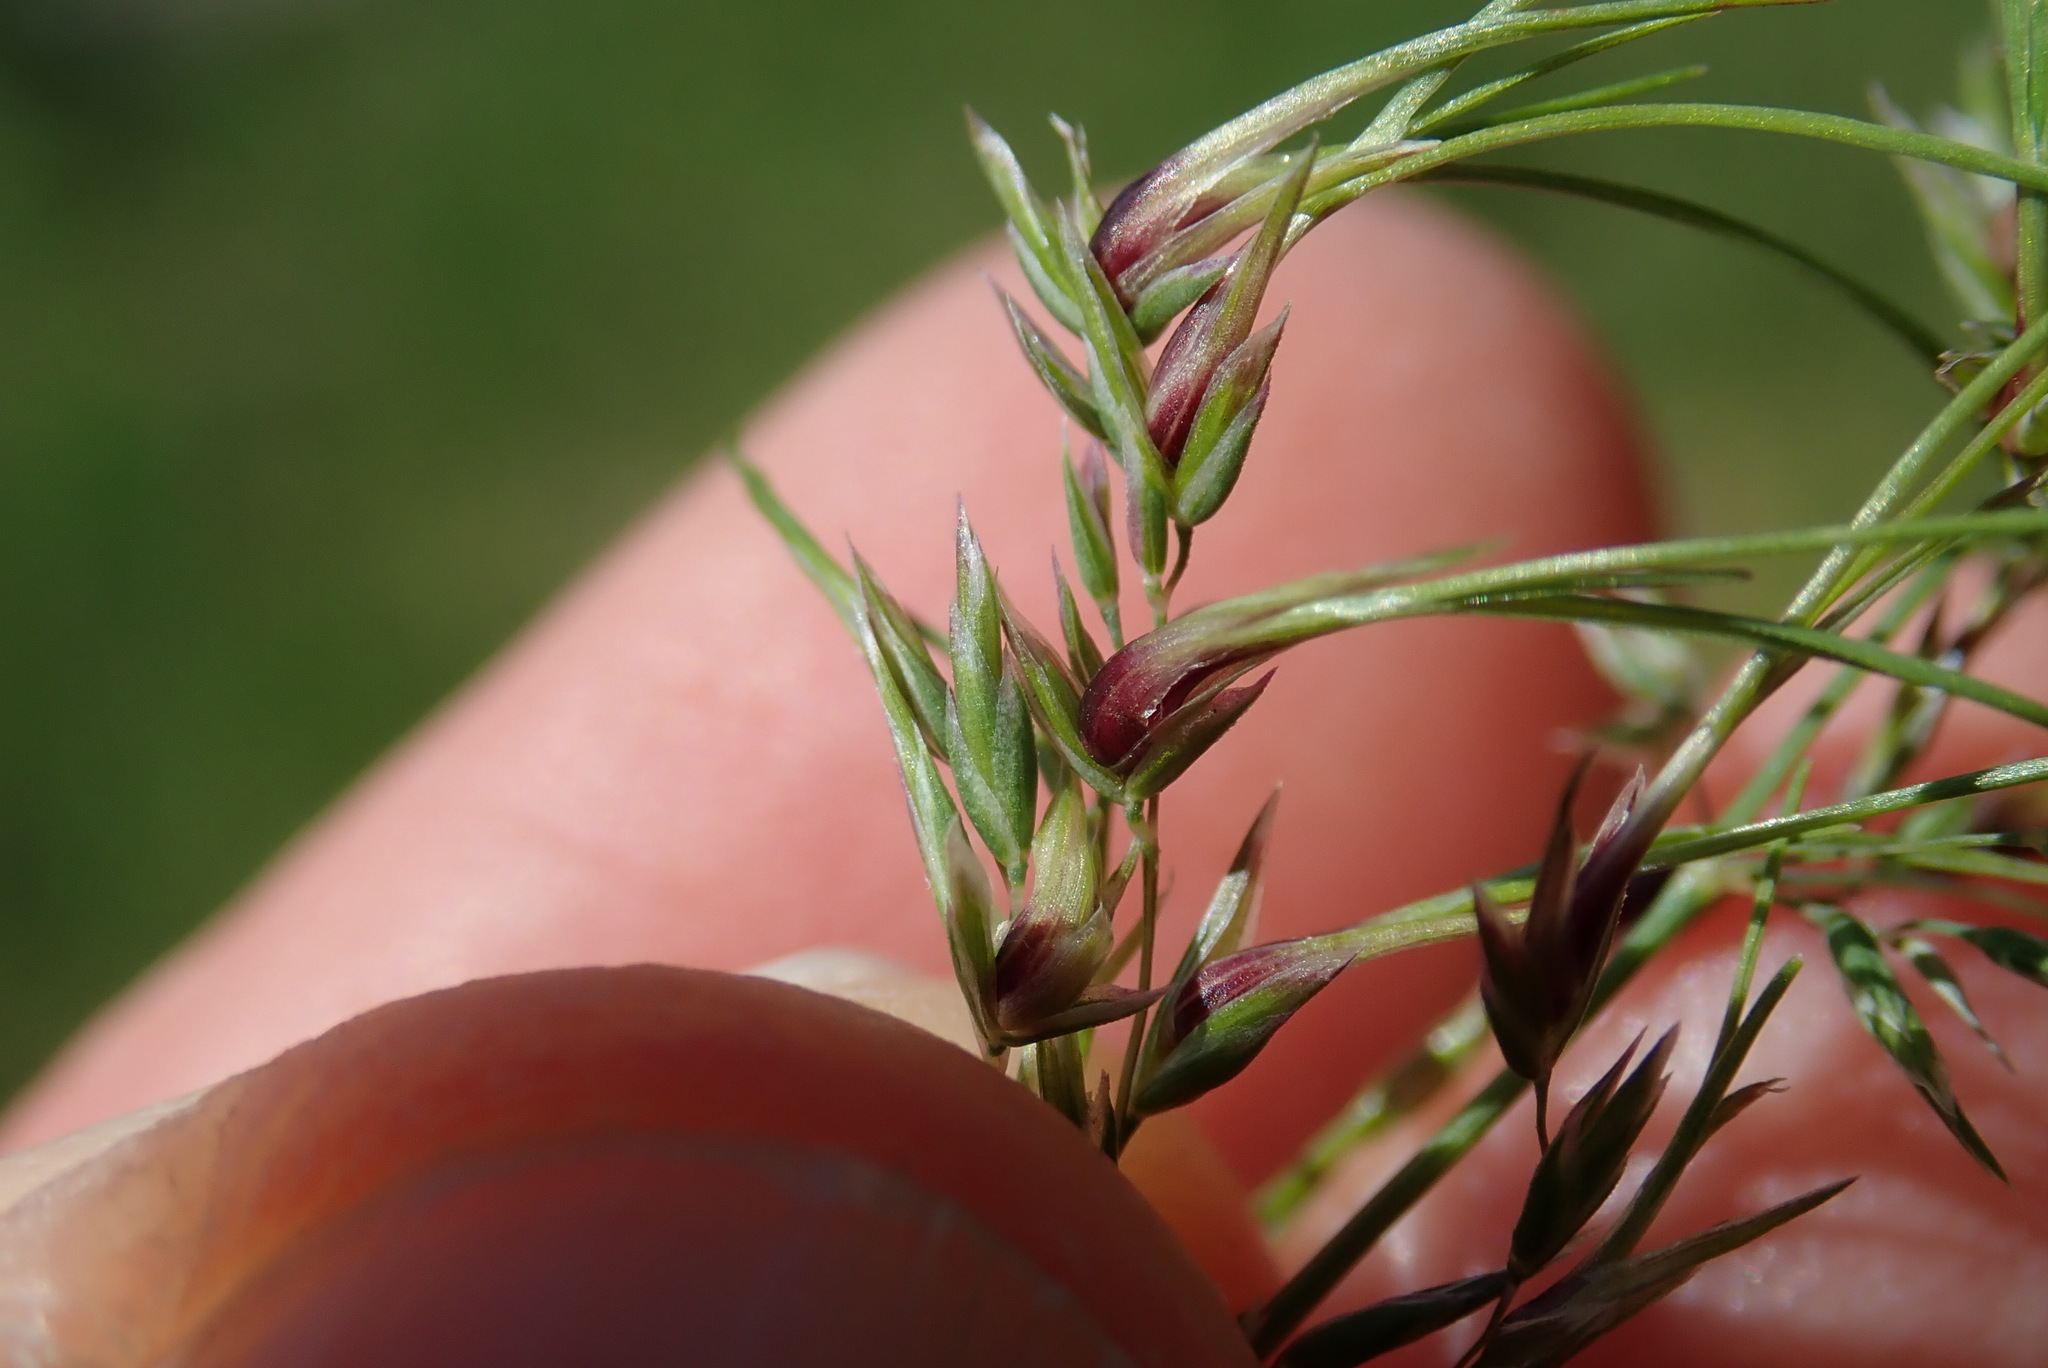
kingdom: Plantae
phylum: Tracheophyta
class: Liliopsida
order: Poales
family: Poaceae
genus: Poa
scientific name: Poa bulbosa
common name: Bulbous bluegrass
